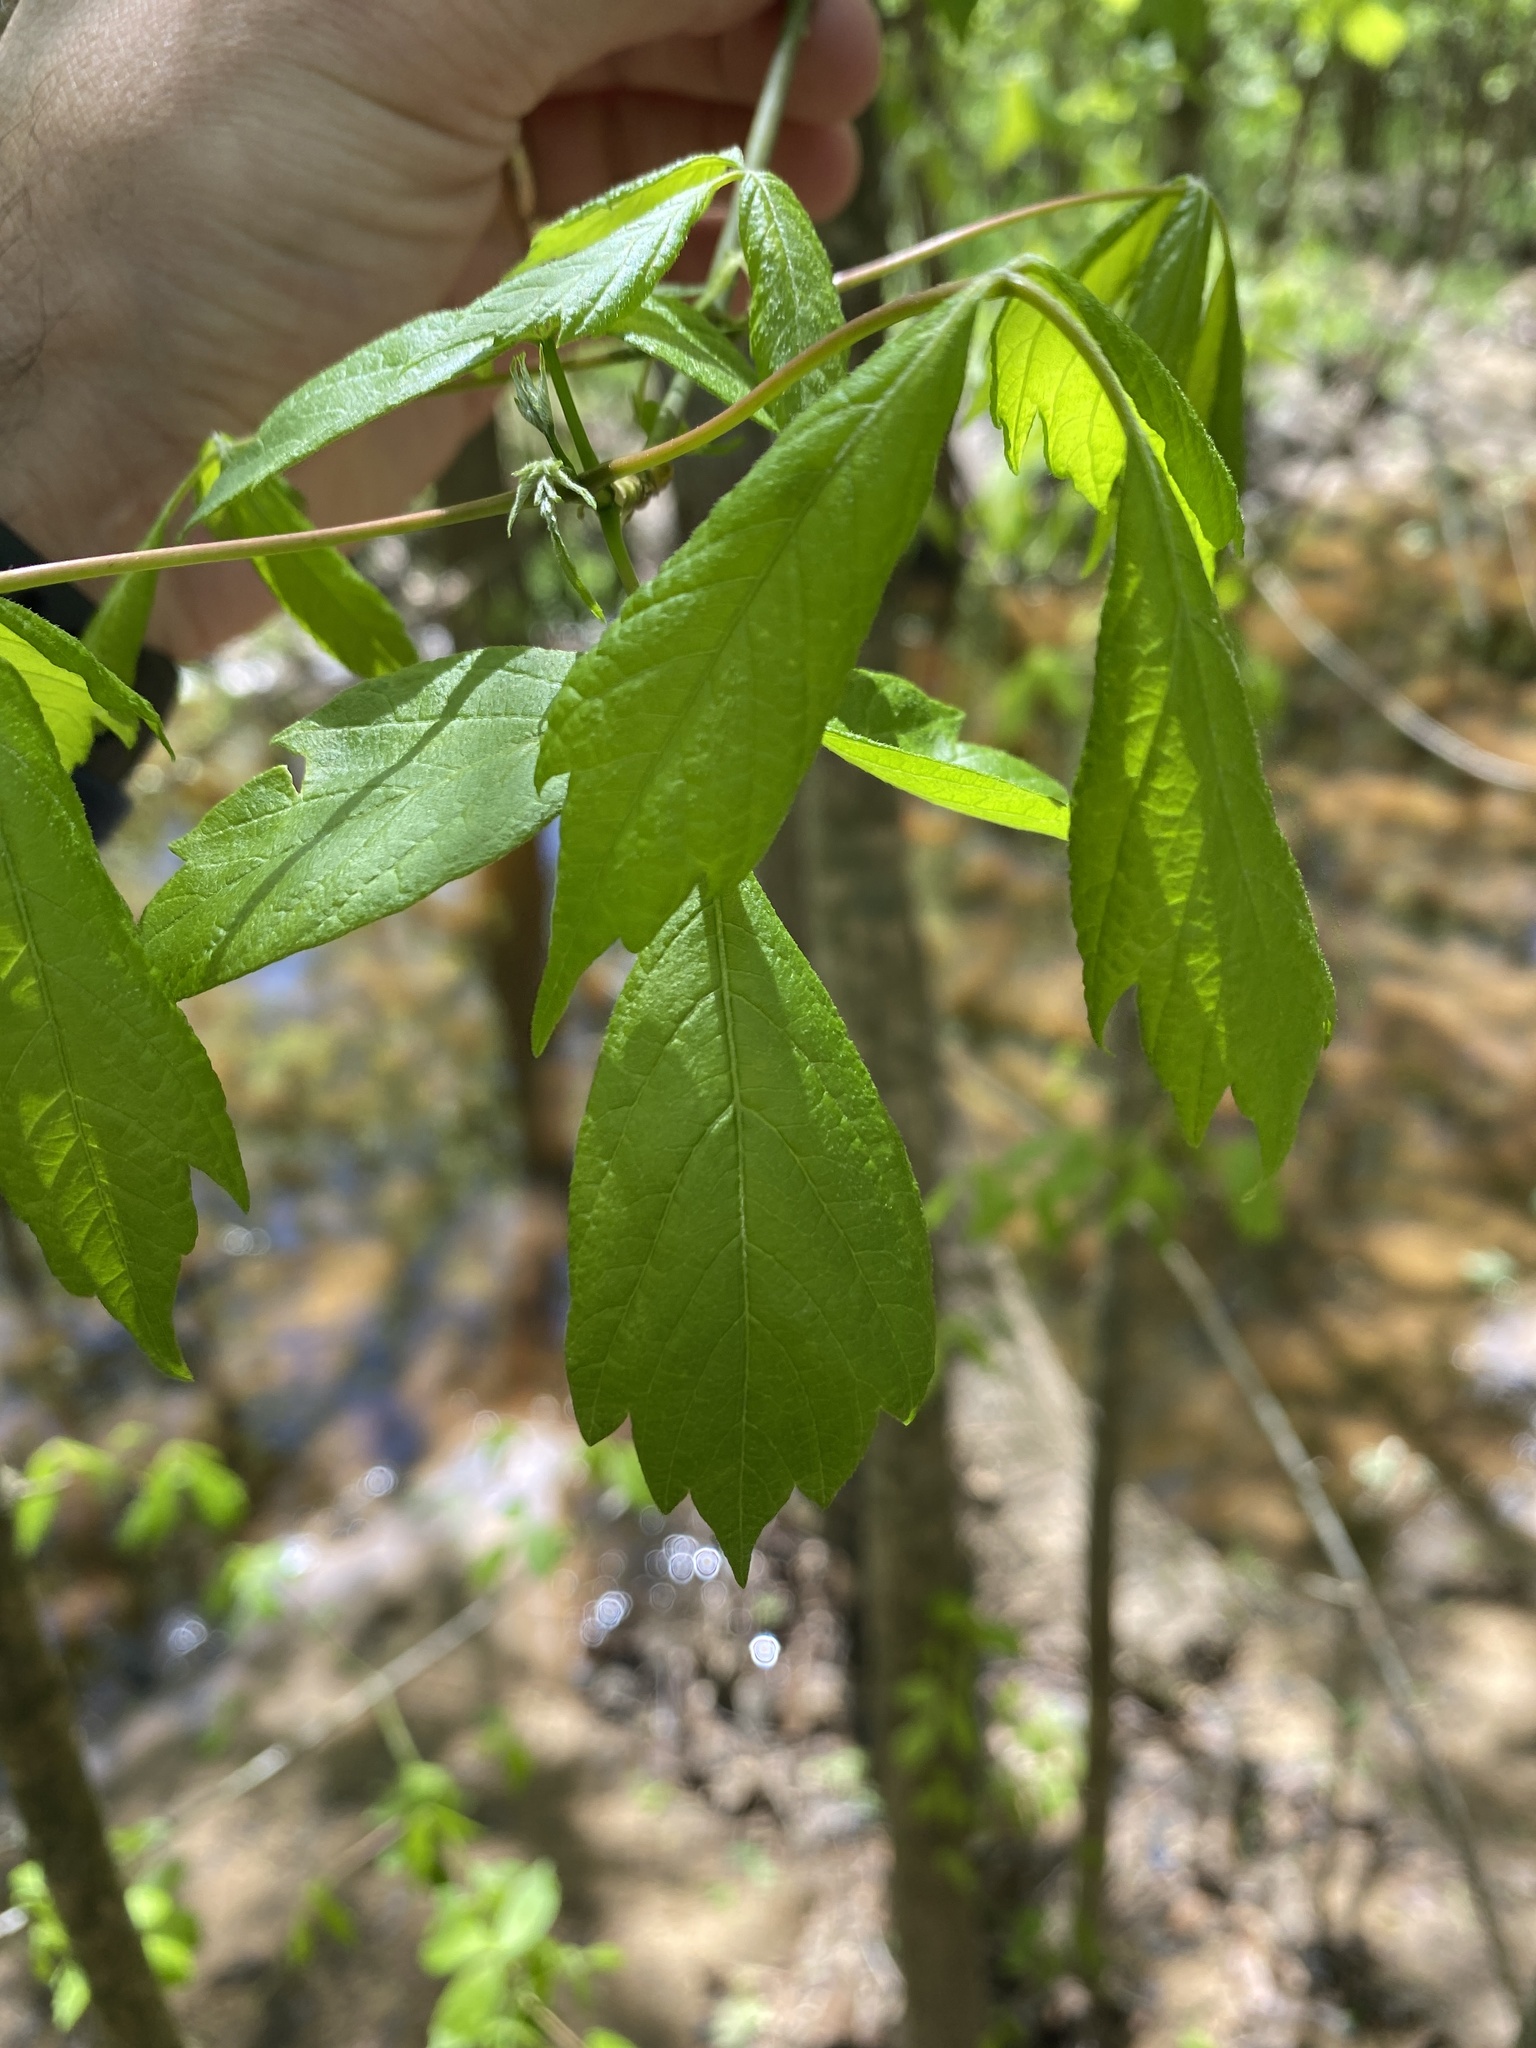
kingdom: Plantae
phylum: Tracheophyta
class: Magnoliopsida
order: Sapindales
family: Sapindaceae
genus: Acer
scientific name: Acer negundo
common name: Ashleaf maple
